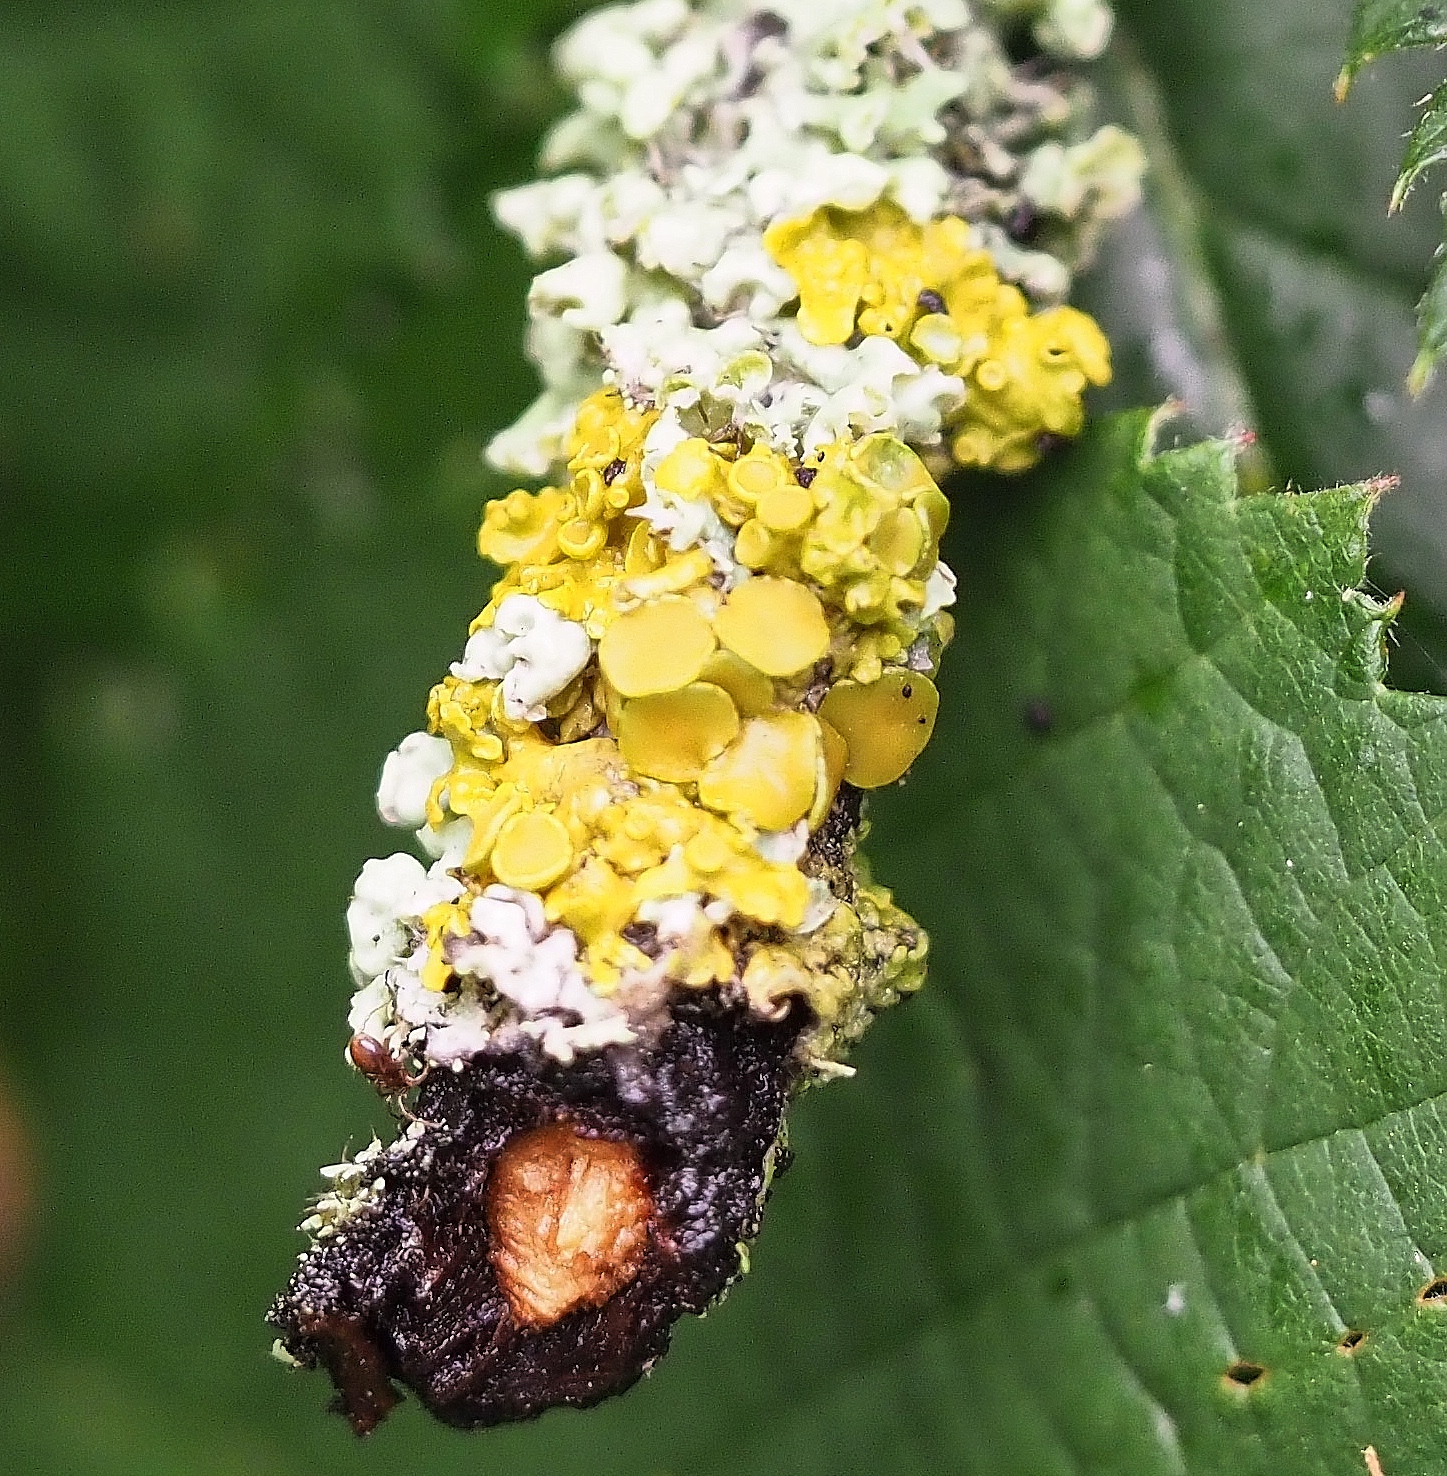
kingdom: Fungi
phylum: Ascomycota
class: Lecanoromycetes
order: Teloschistales
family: Teloschistaceae
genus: Xanthoria
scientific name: Xanthoria parietina
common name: Common orange lichen
